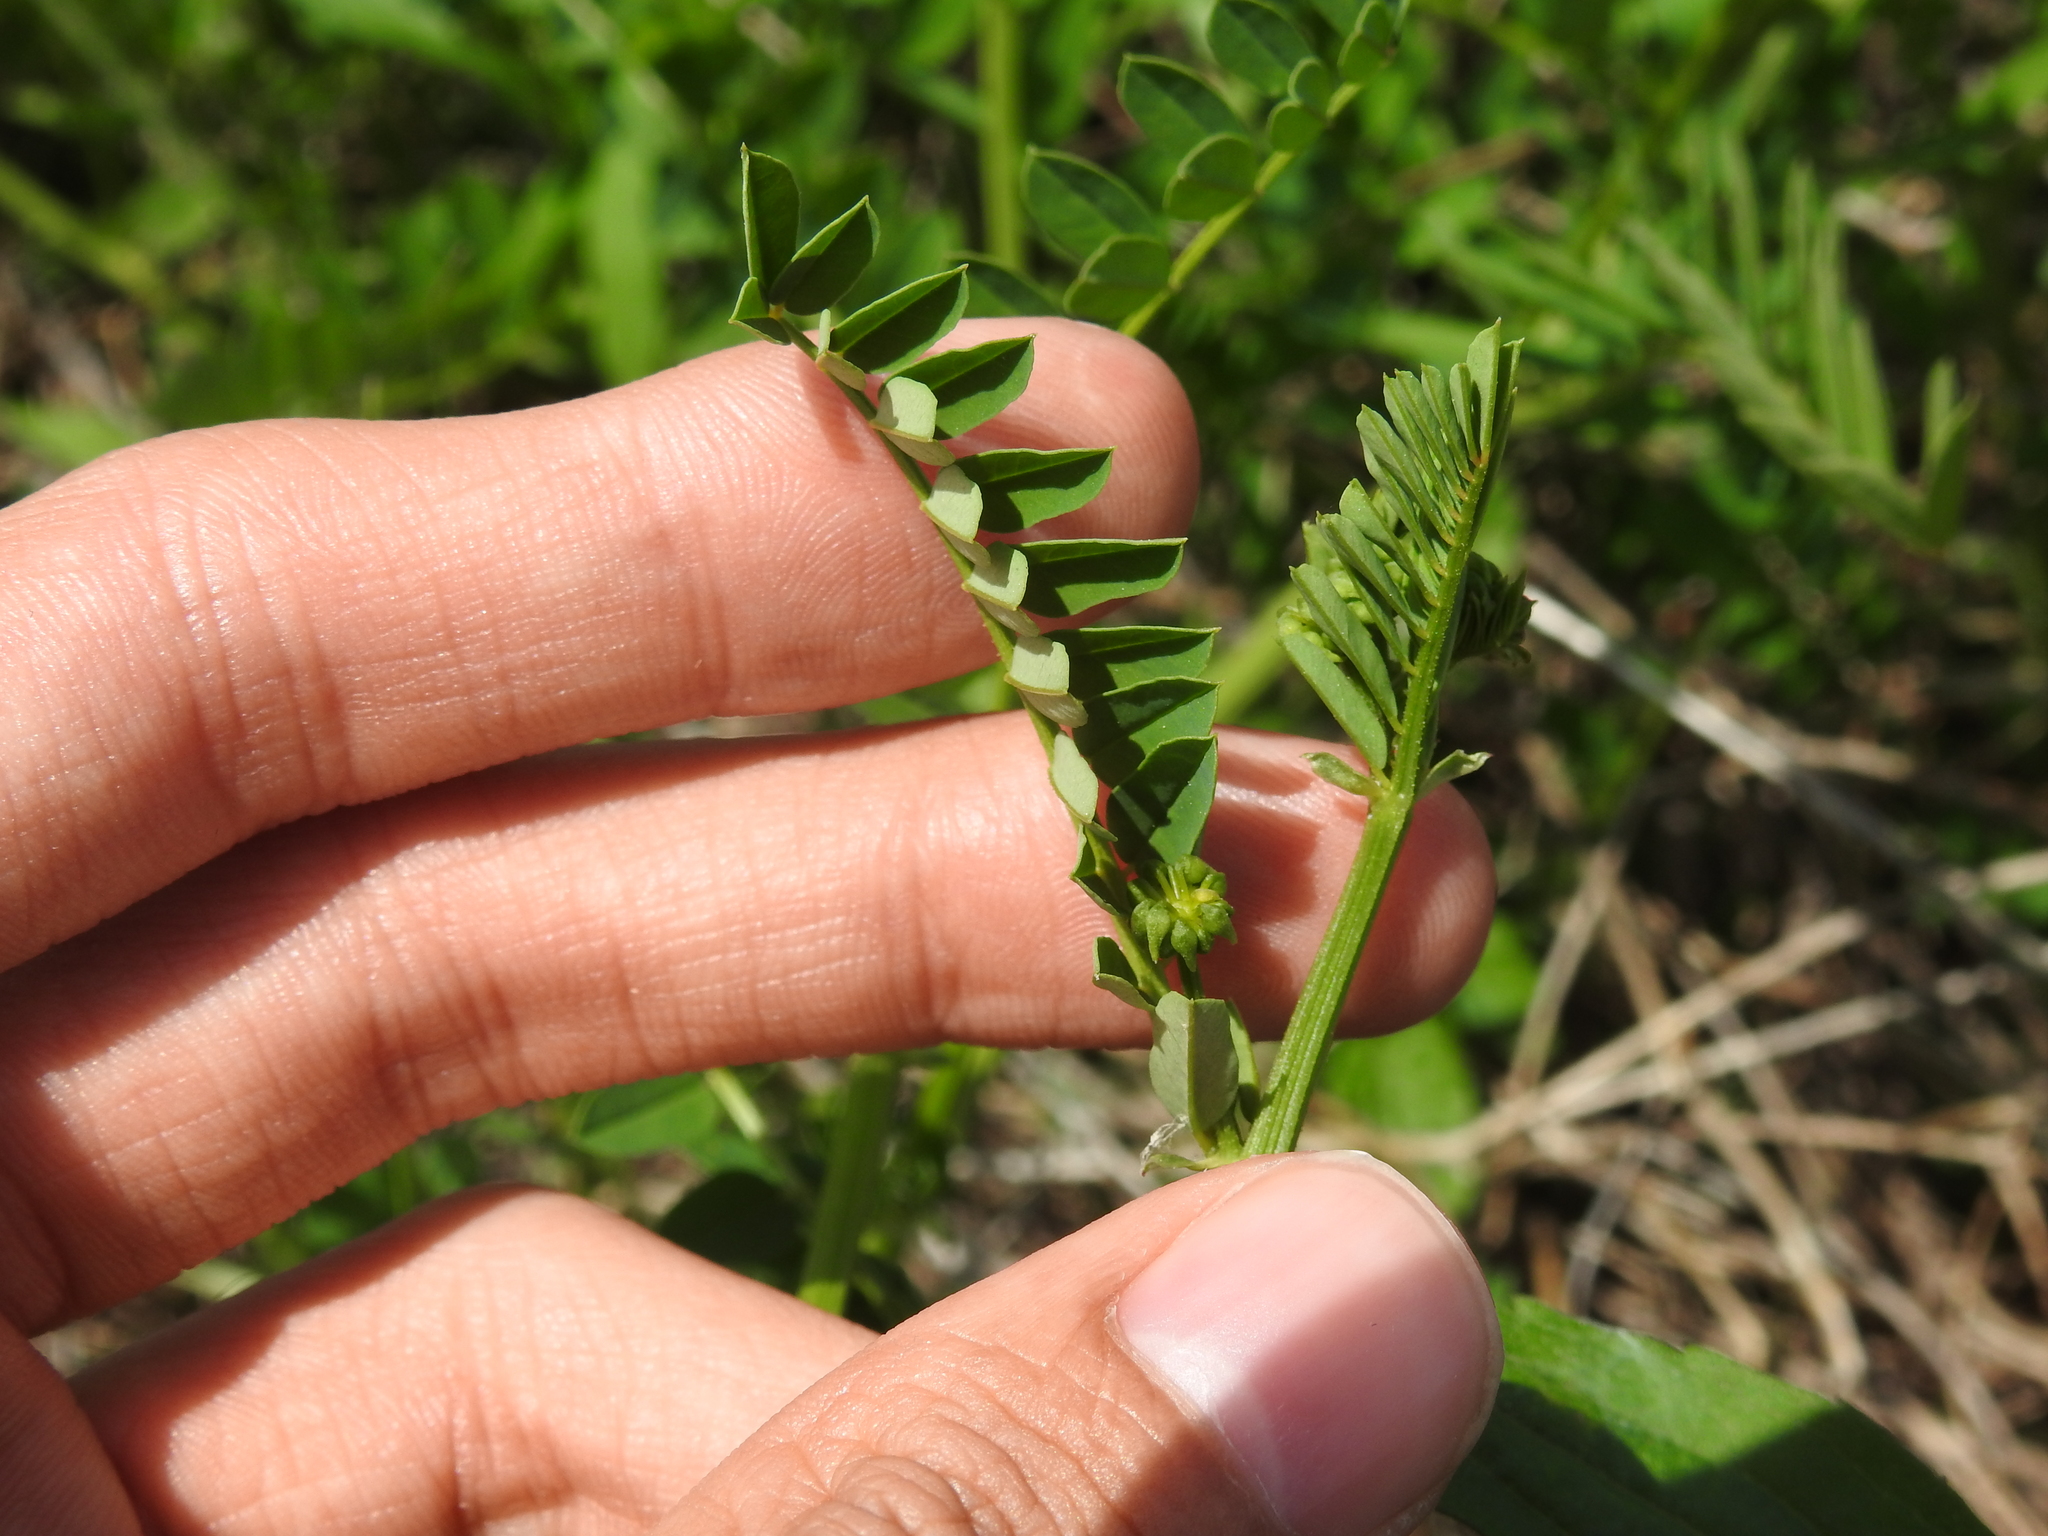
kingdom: Plantae
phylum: Tracheophyta
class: Magnoliopsida
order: Fabales
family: Fabaceae
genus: Coronilla
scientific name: Coronilla varia
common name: Crownvetch
